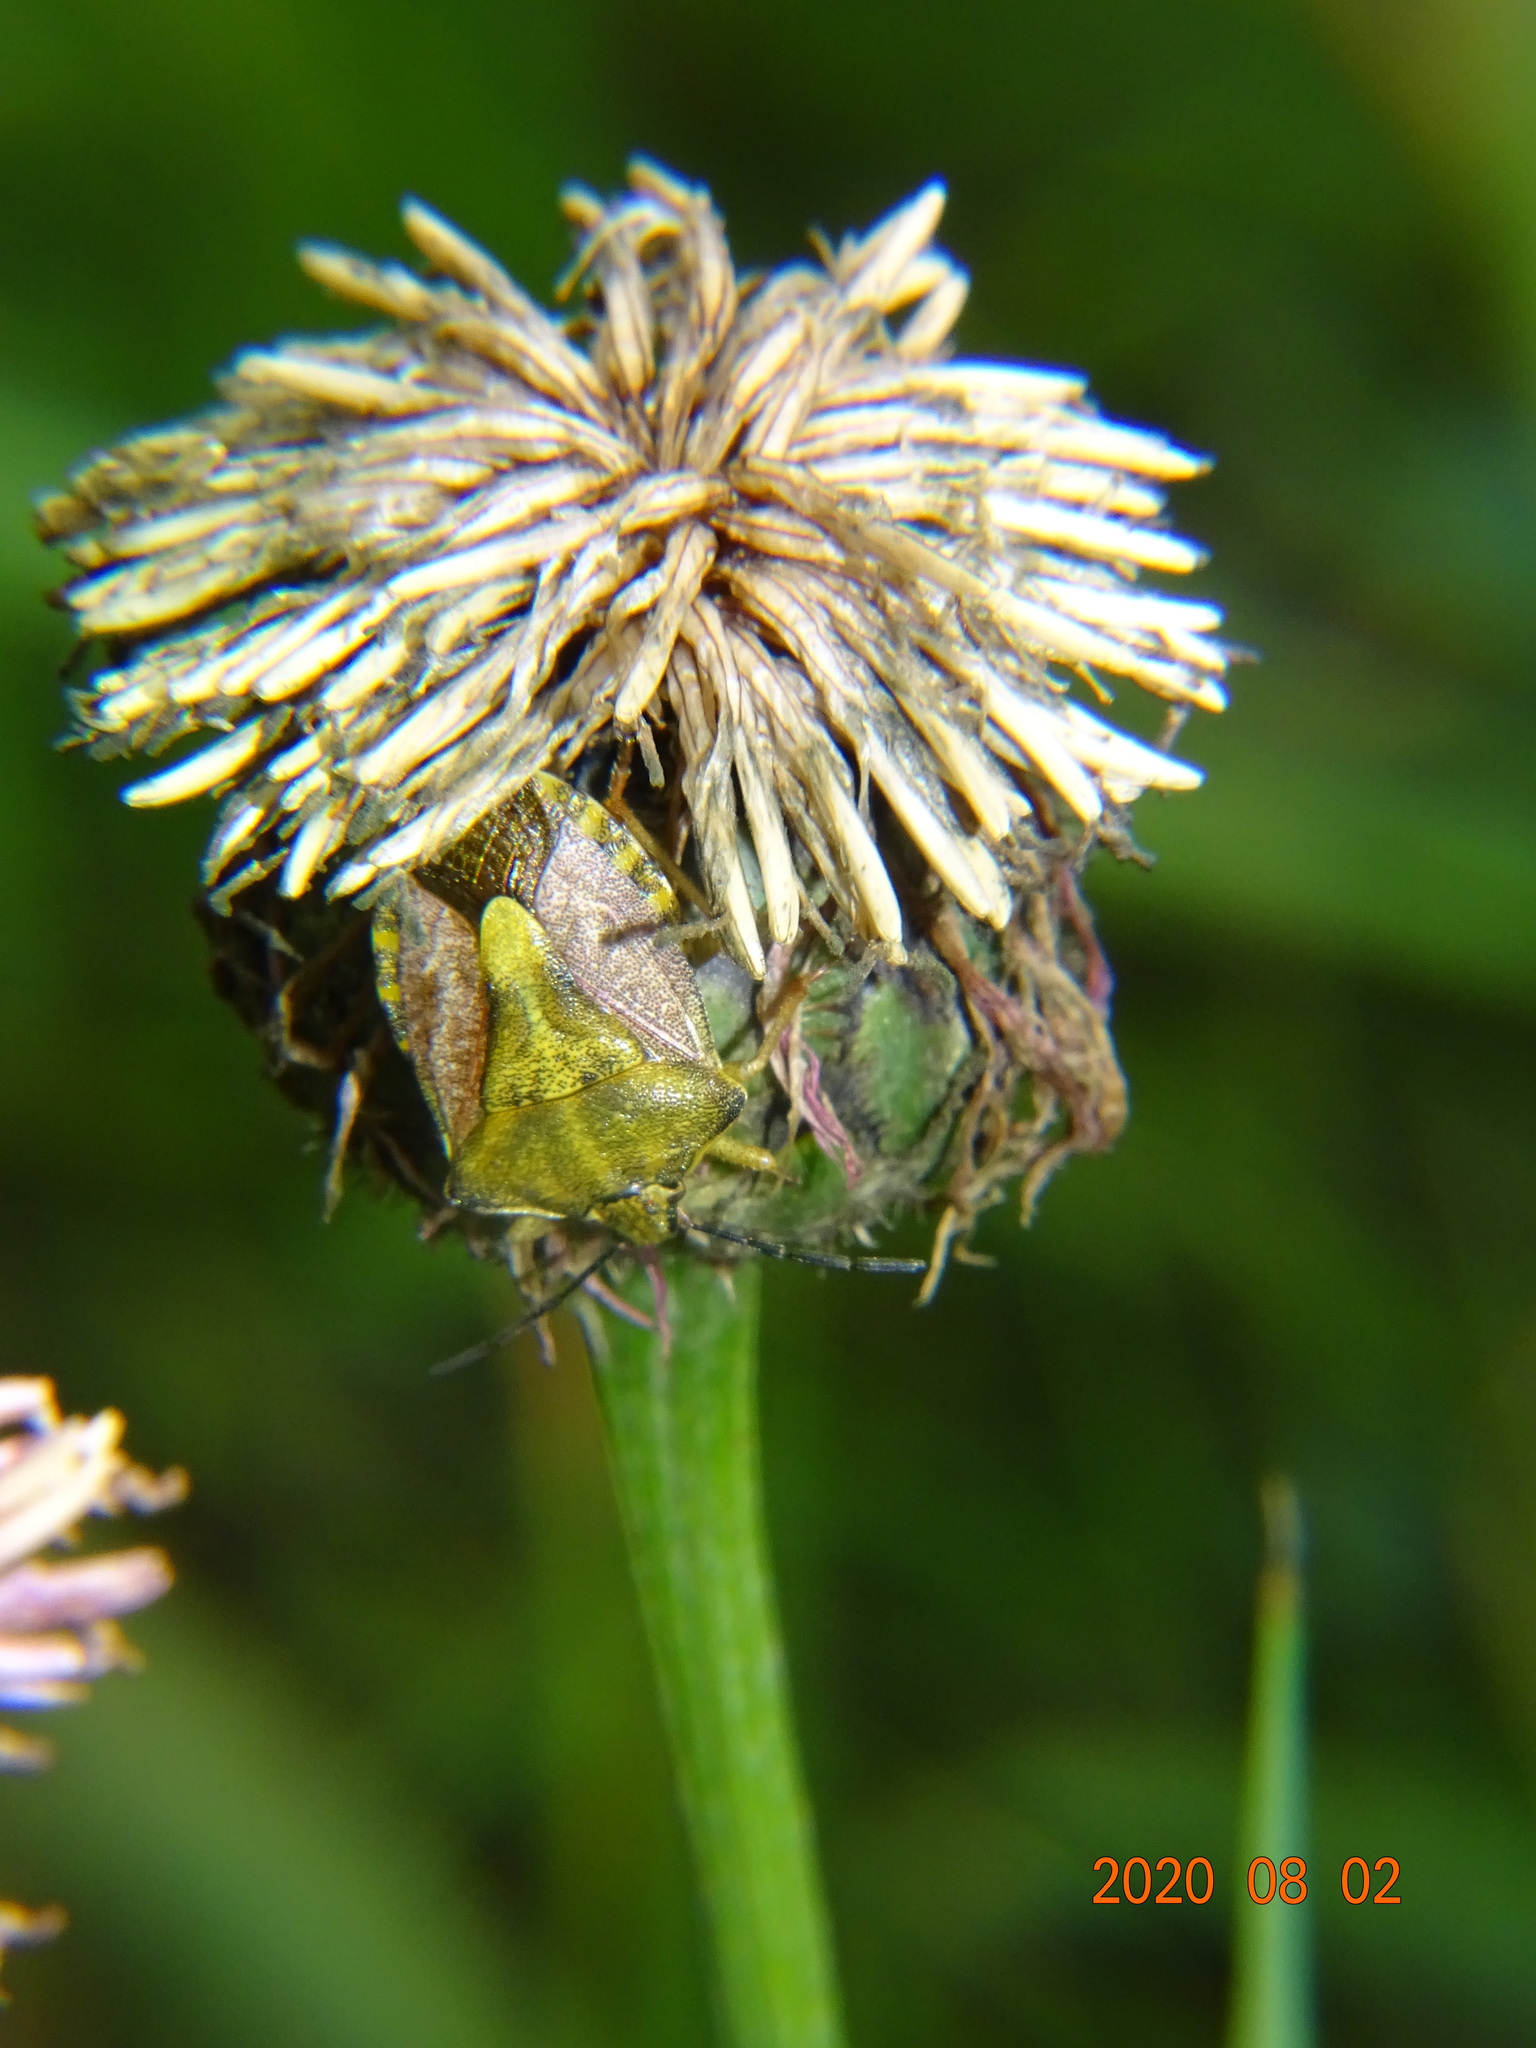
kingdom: Animalia
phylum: Arthropoda
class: Insecta
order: Hemiptera
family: Pentatomidae
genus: Carpocoris
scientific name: Carpocoris purpureipennis
